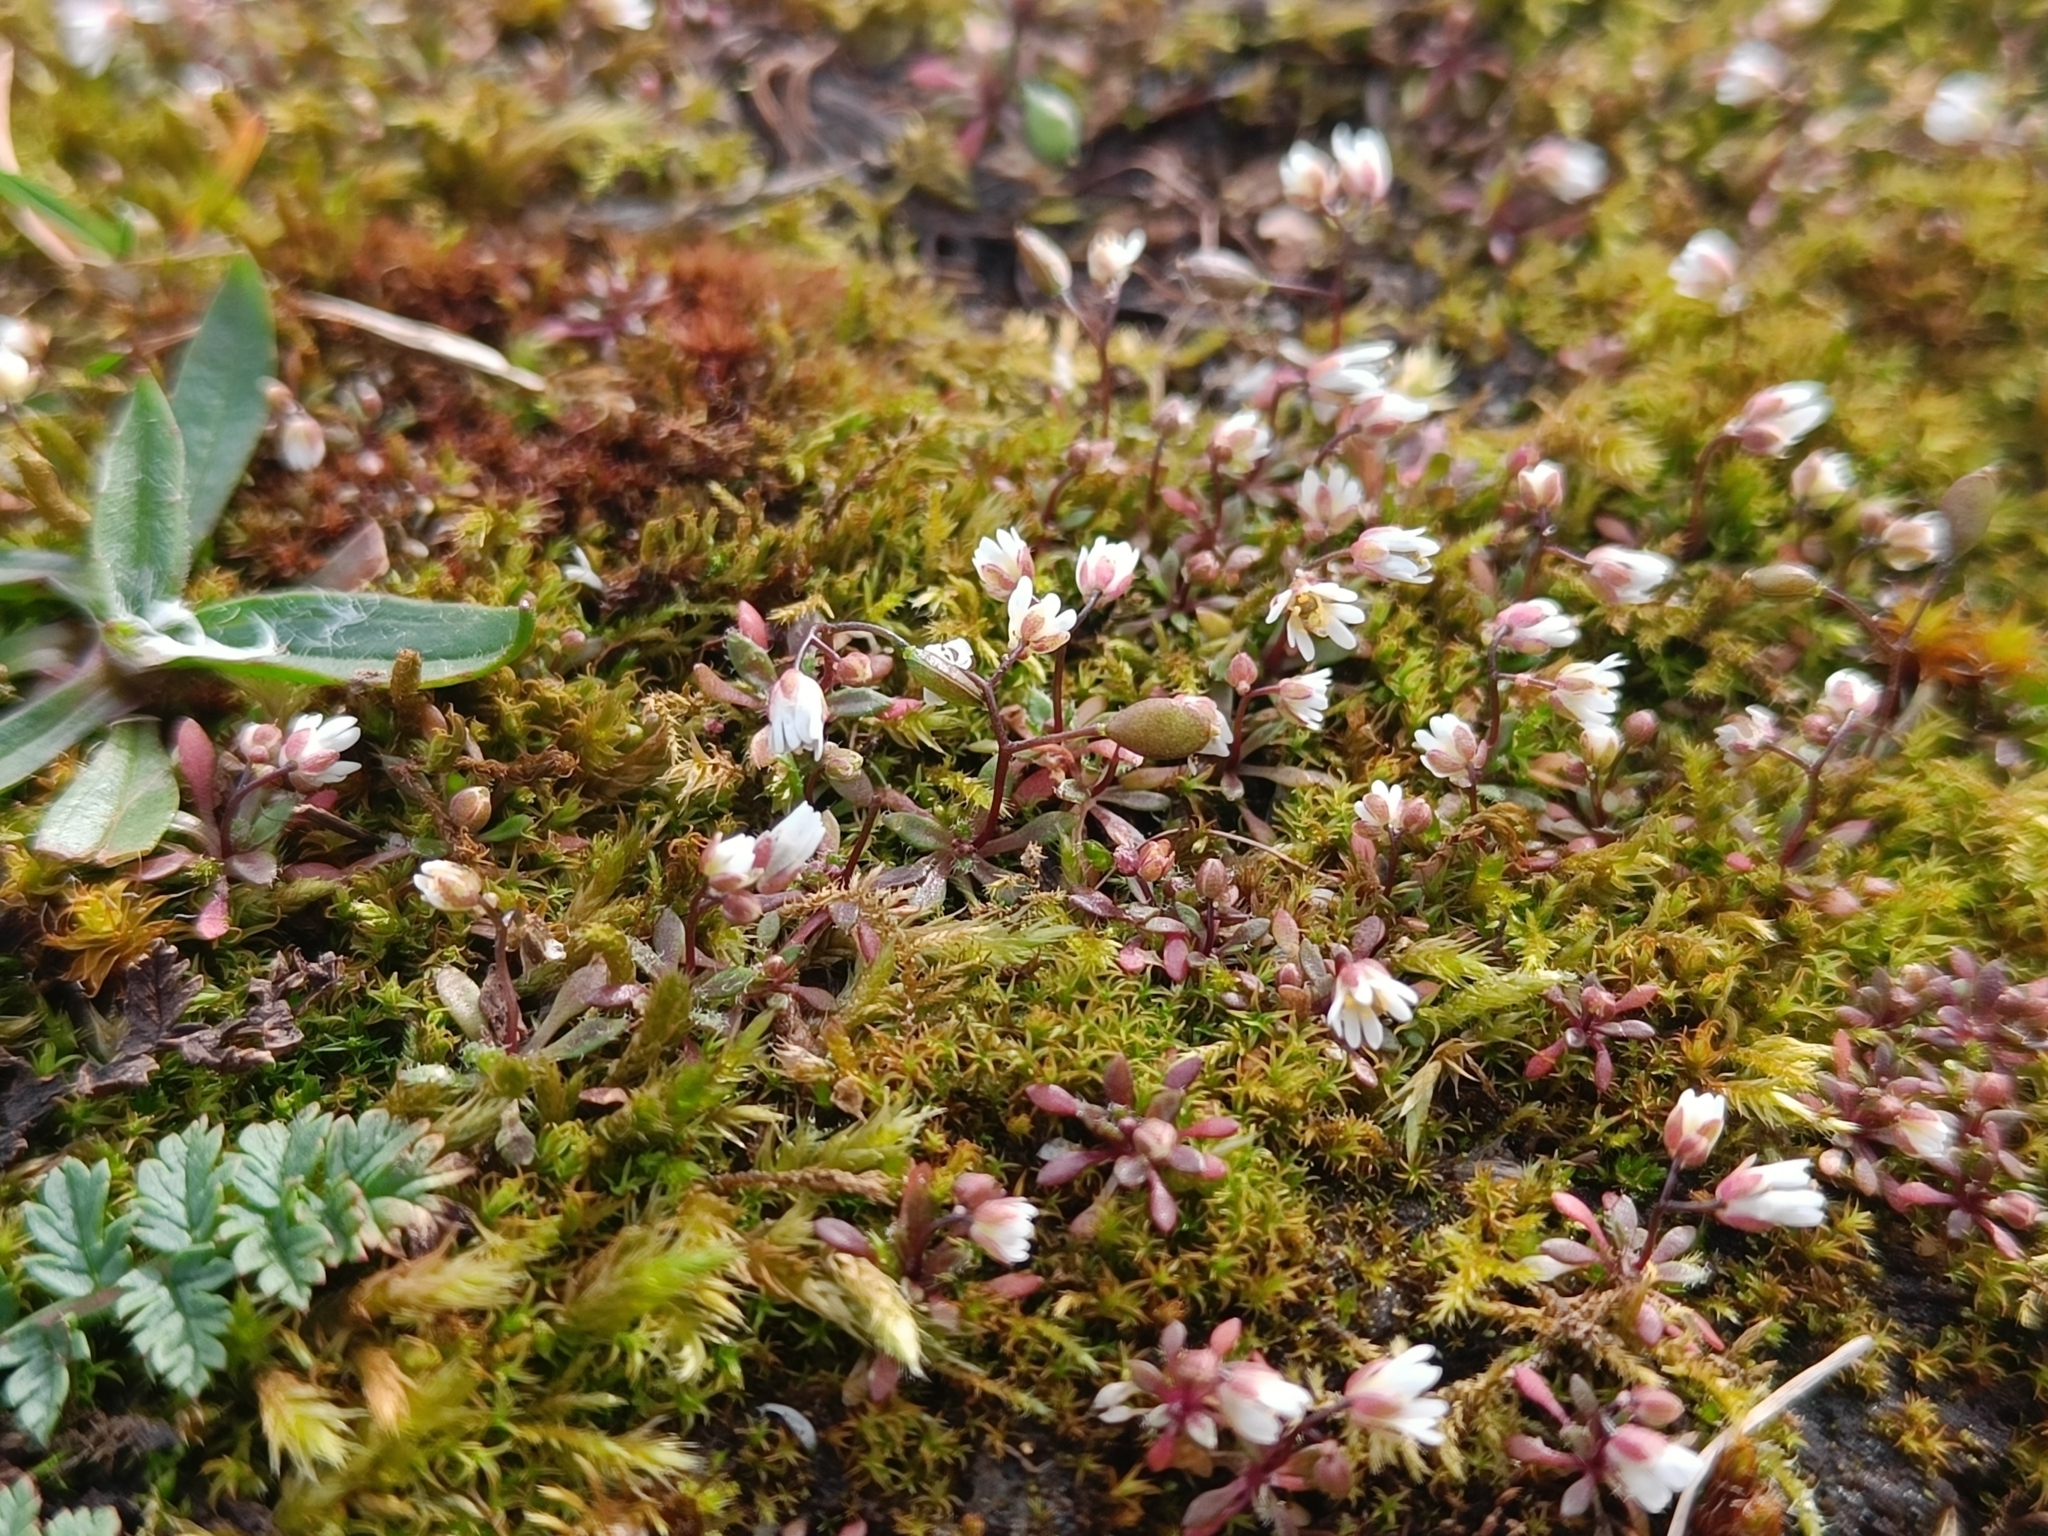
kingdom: Plantae
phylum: Tracheophyta
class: Magnoliopsida
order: Brassicales
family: Brassicaceae
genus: Draba
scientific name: Draba verna
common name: Spring draba
